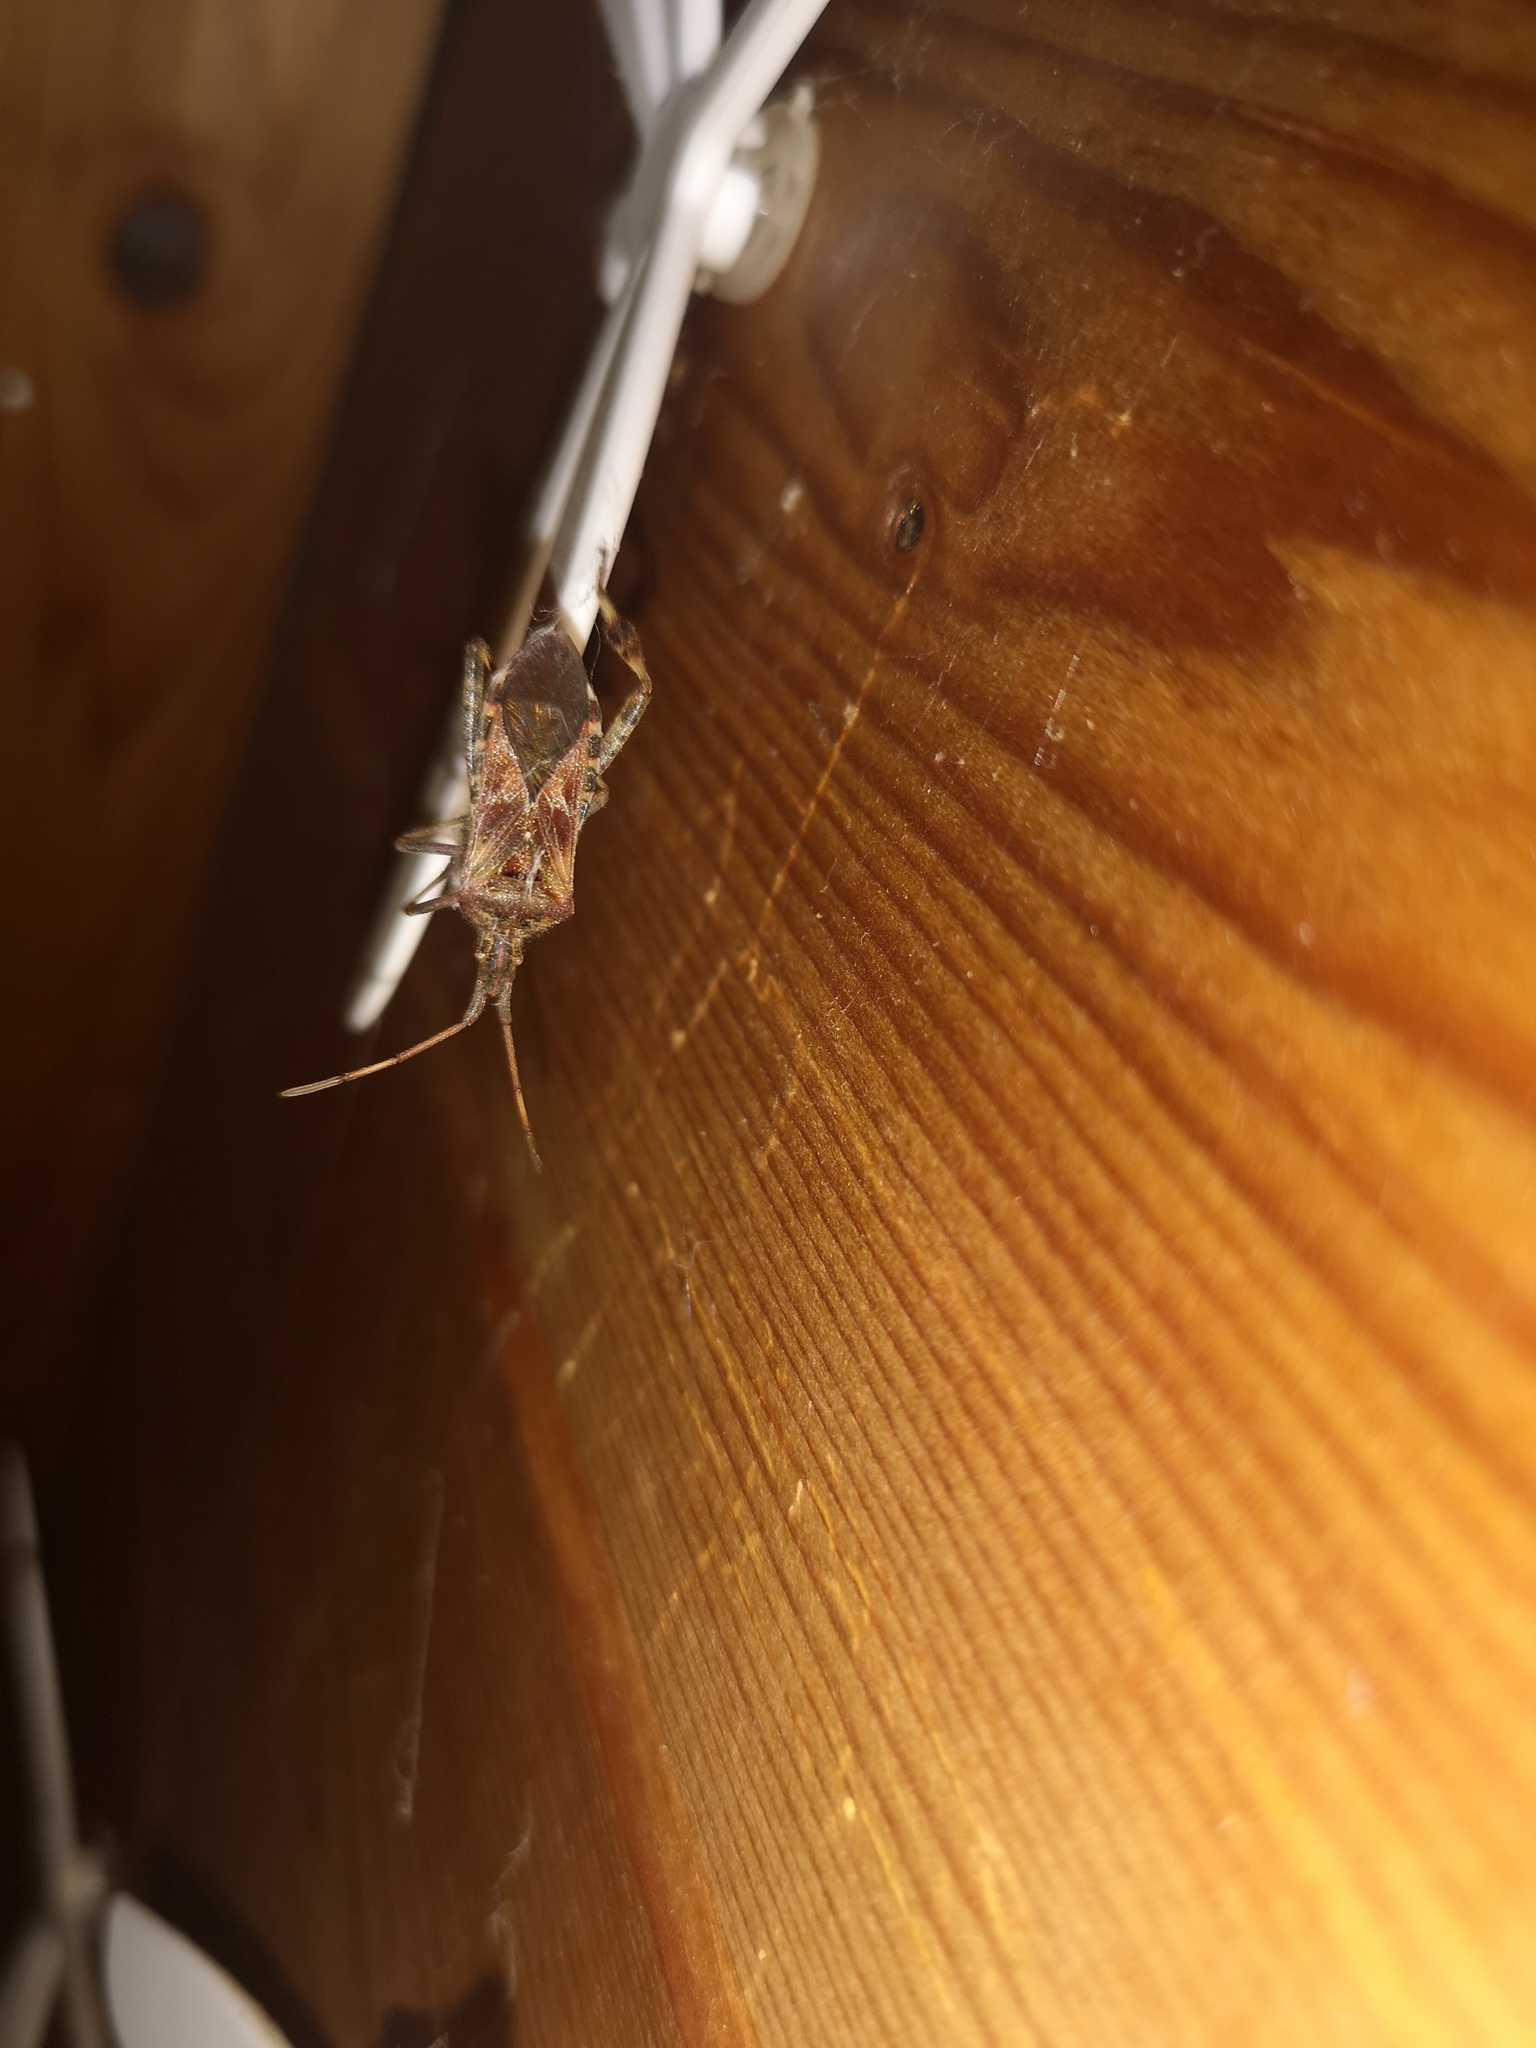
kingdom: Animalia
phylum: Arthropoda
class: Insecta
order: Hemiptera
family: Coreidae
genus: Leptoglossus
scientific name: Leptoglossus occidentalis
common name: Western conifer-seed bug
